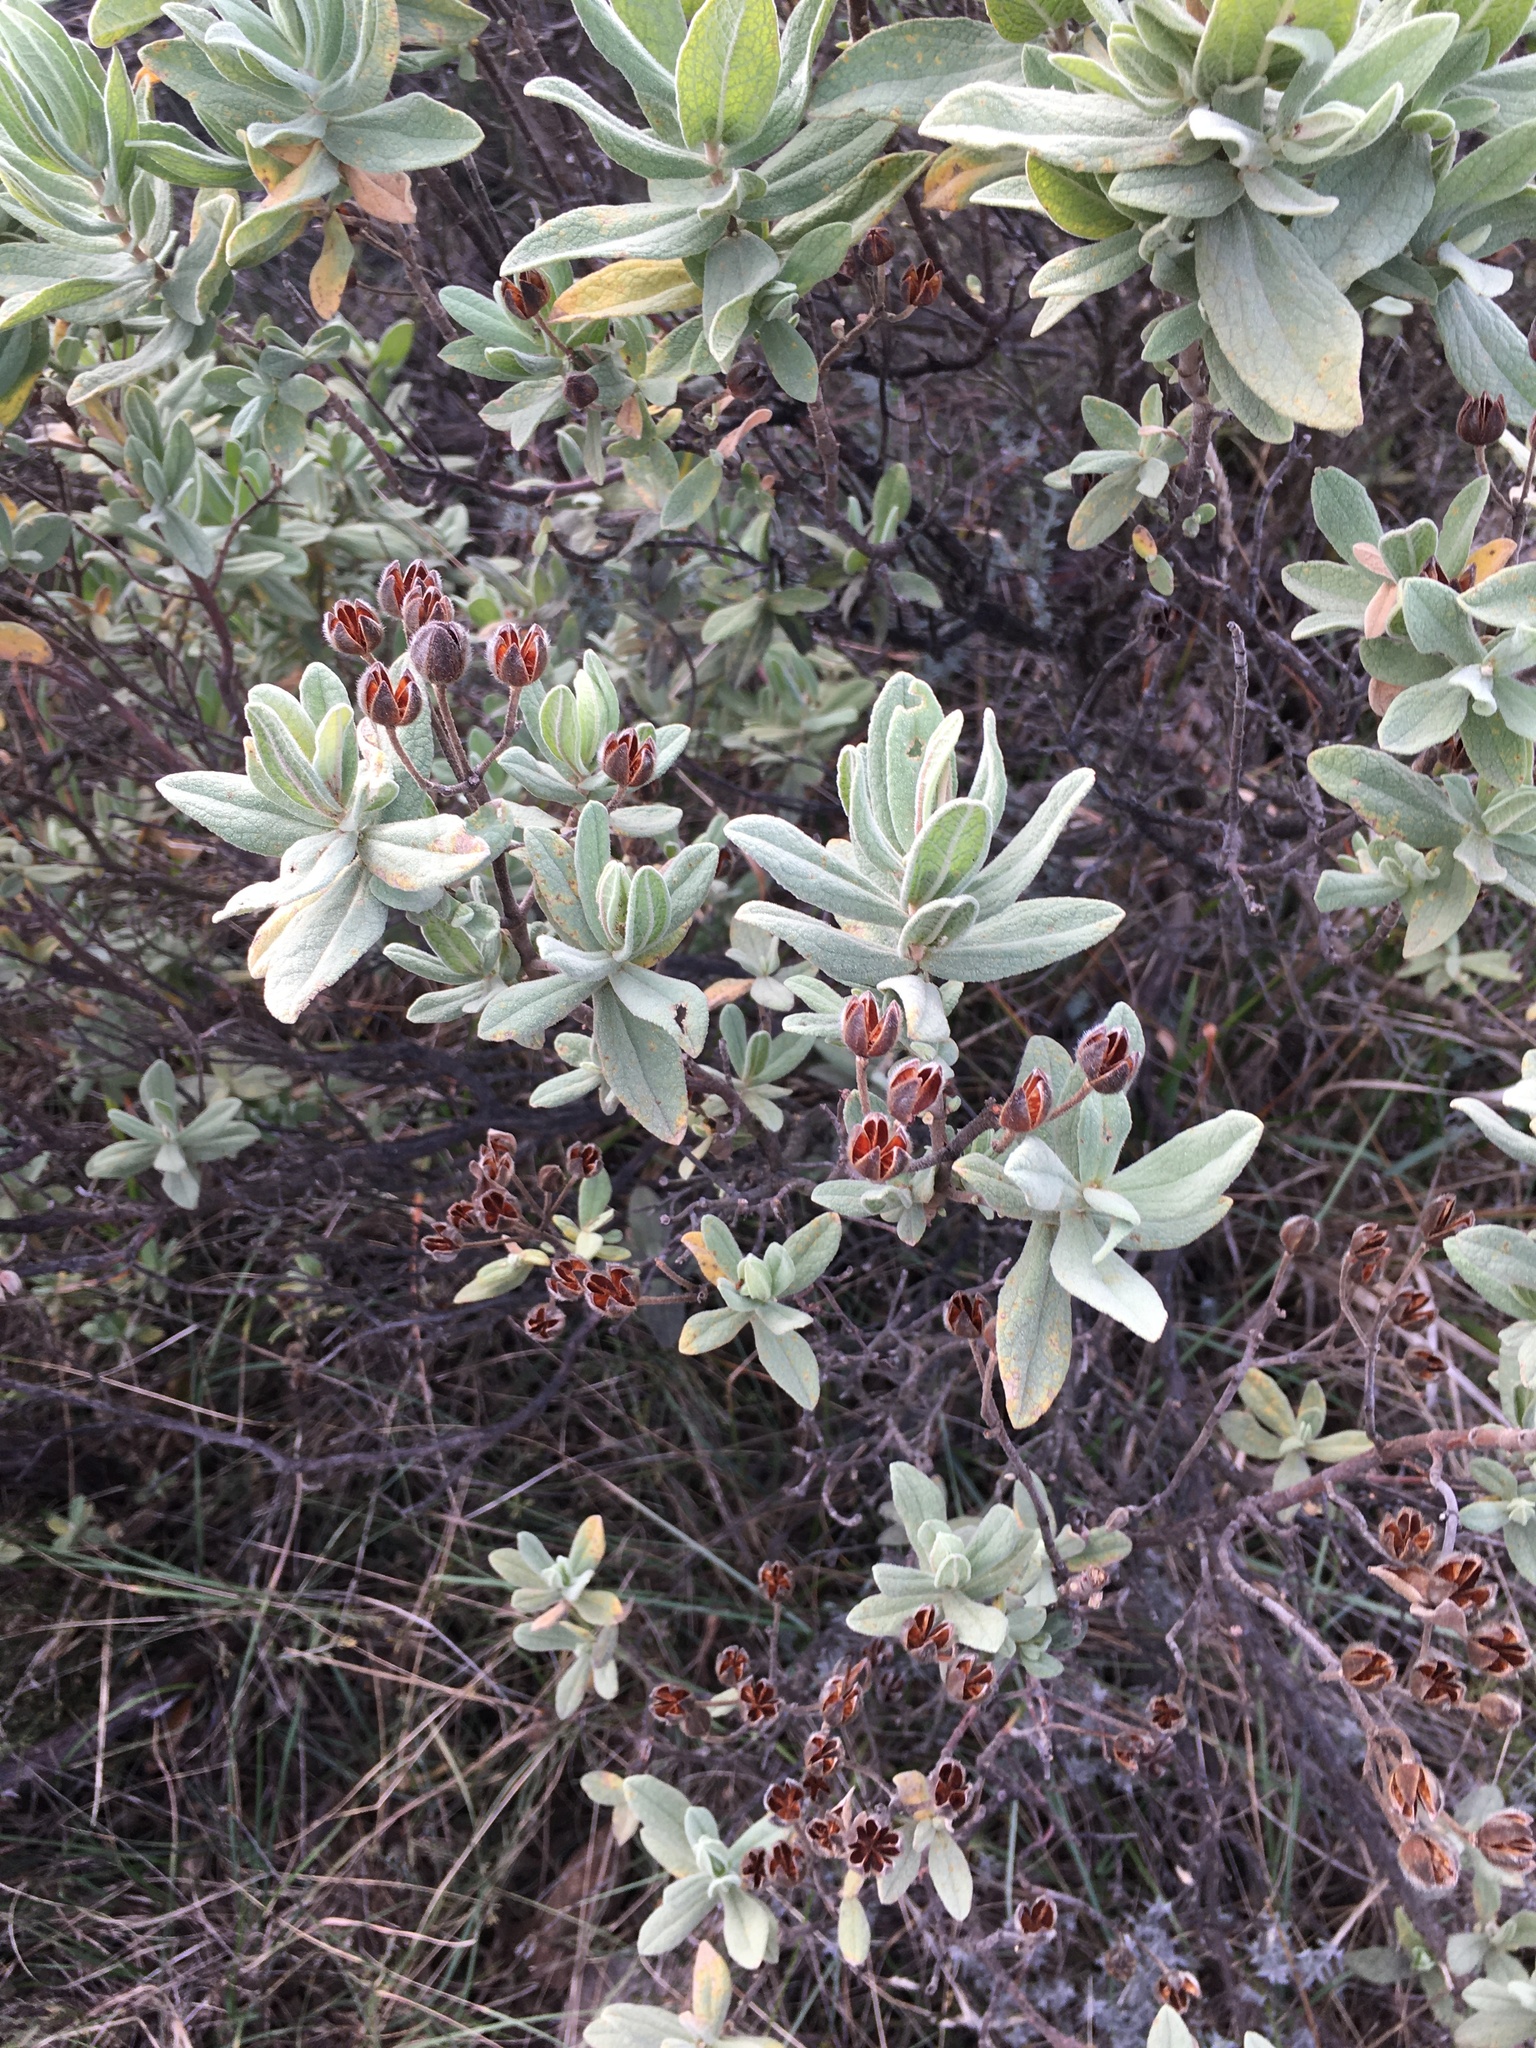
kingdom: Plantae
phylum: Tracheophyta
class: Magnoliopsida
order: Malvales
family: Cistaceae
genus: Cistus
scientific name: Cistus albidus
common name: White-leaf rock-rose
